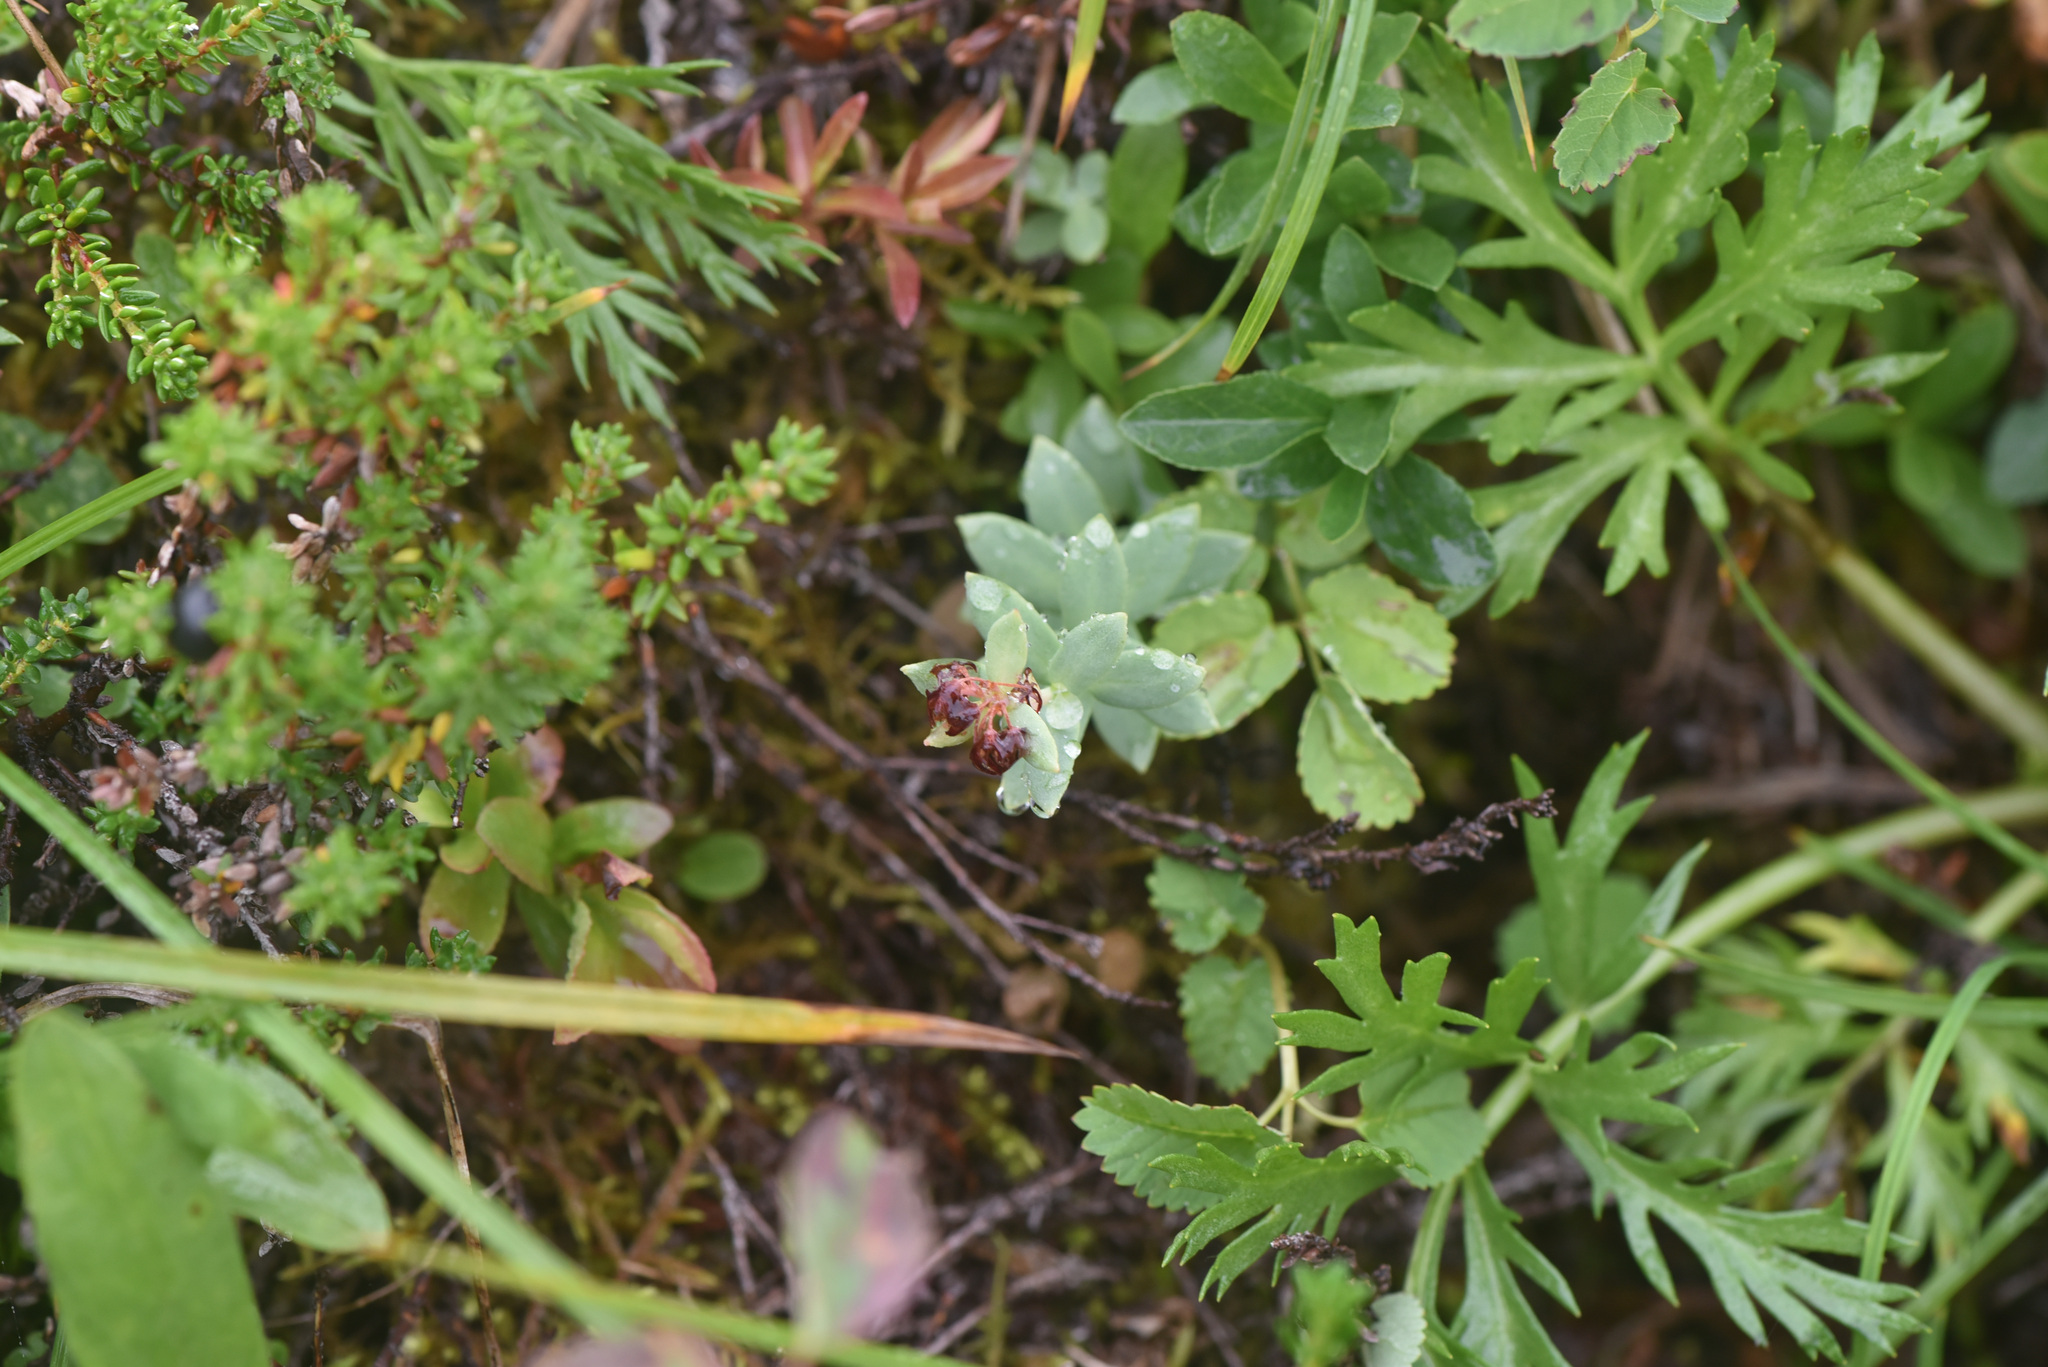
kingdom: Plantae
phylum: Tracheophyta
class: Magnoliopsida
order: Saxifragales
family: Crassulaceae
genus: Rhodiola
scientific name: Rhodiola integrifolia
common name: Western roseroot
